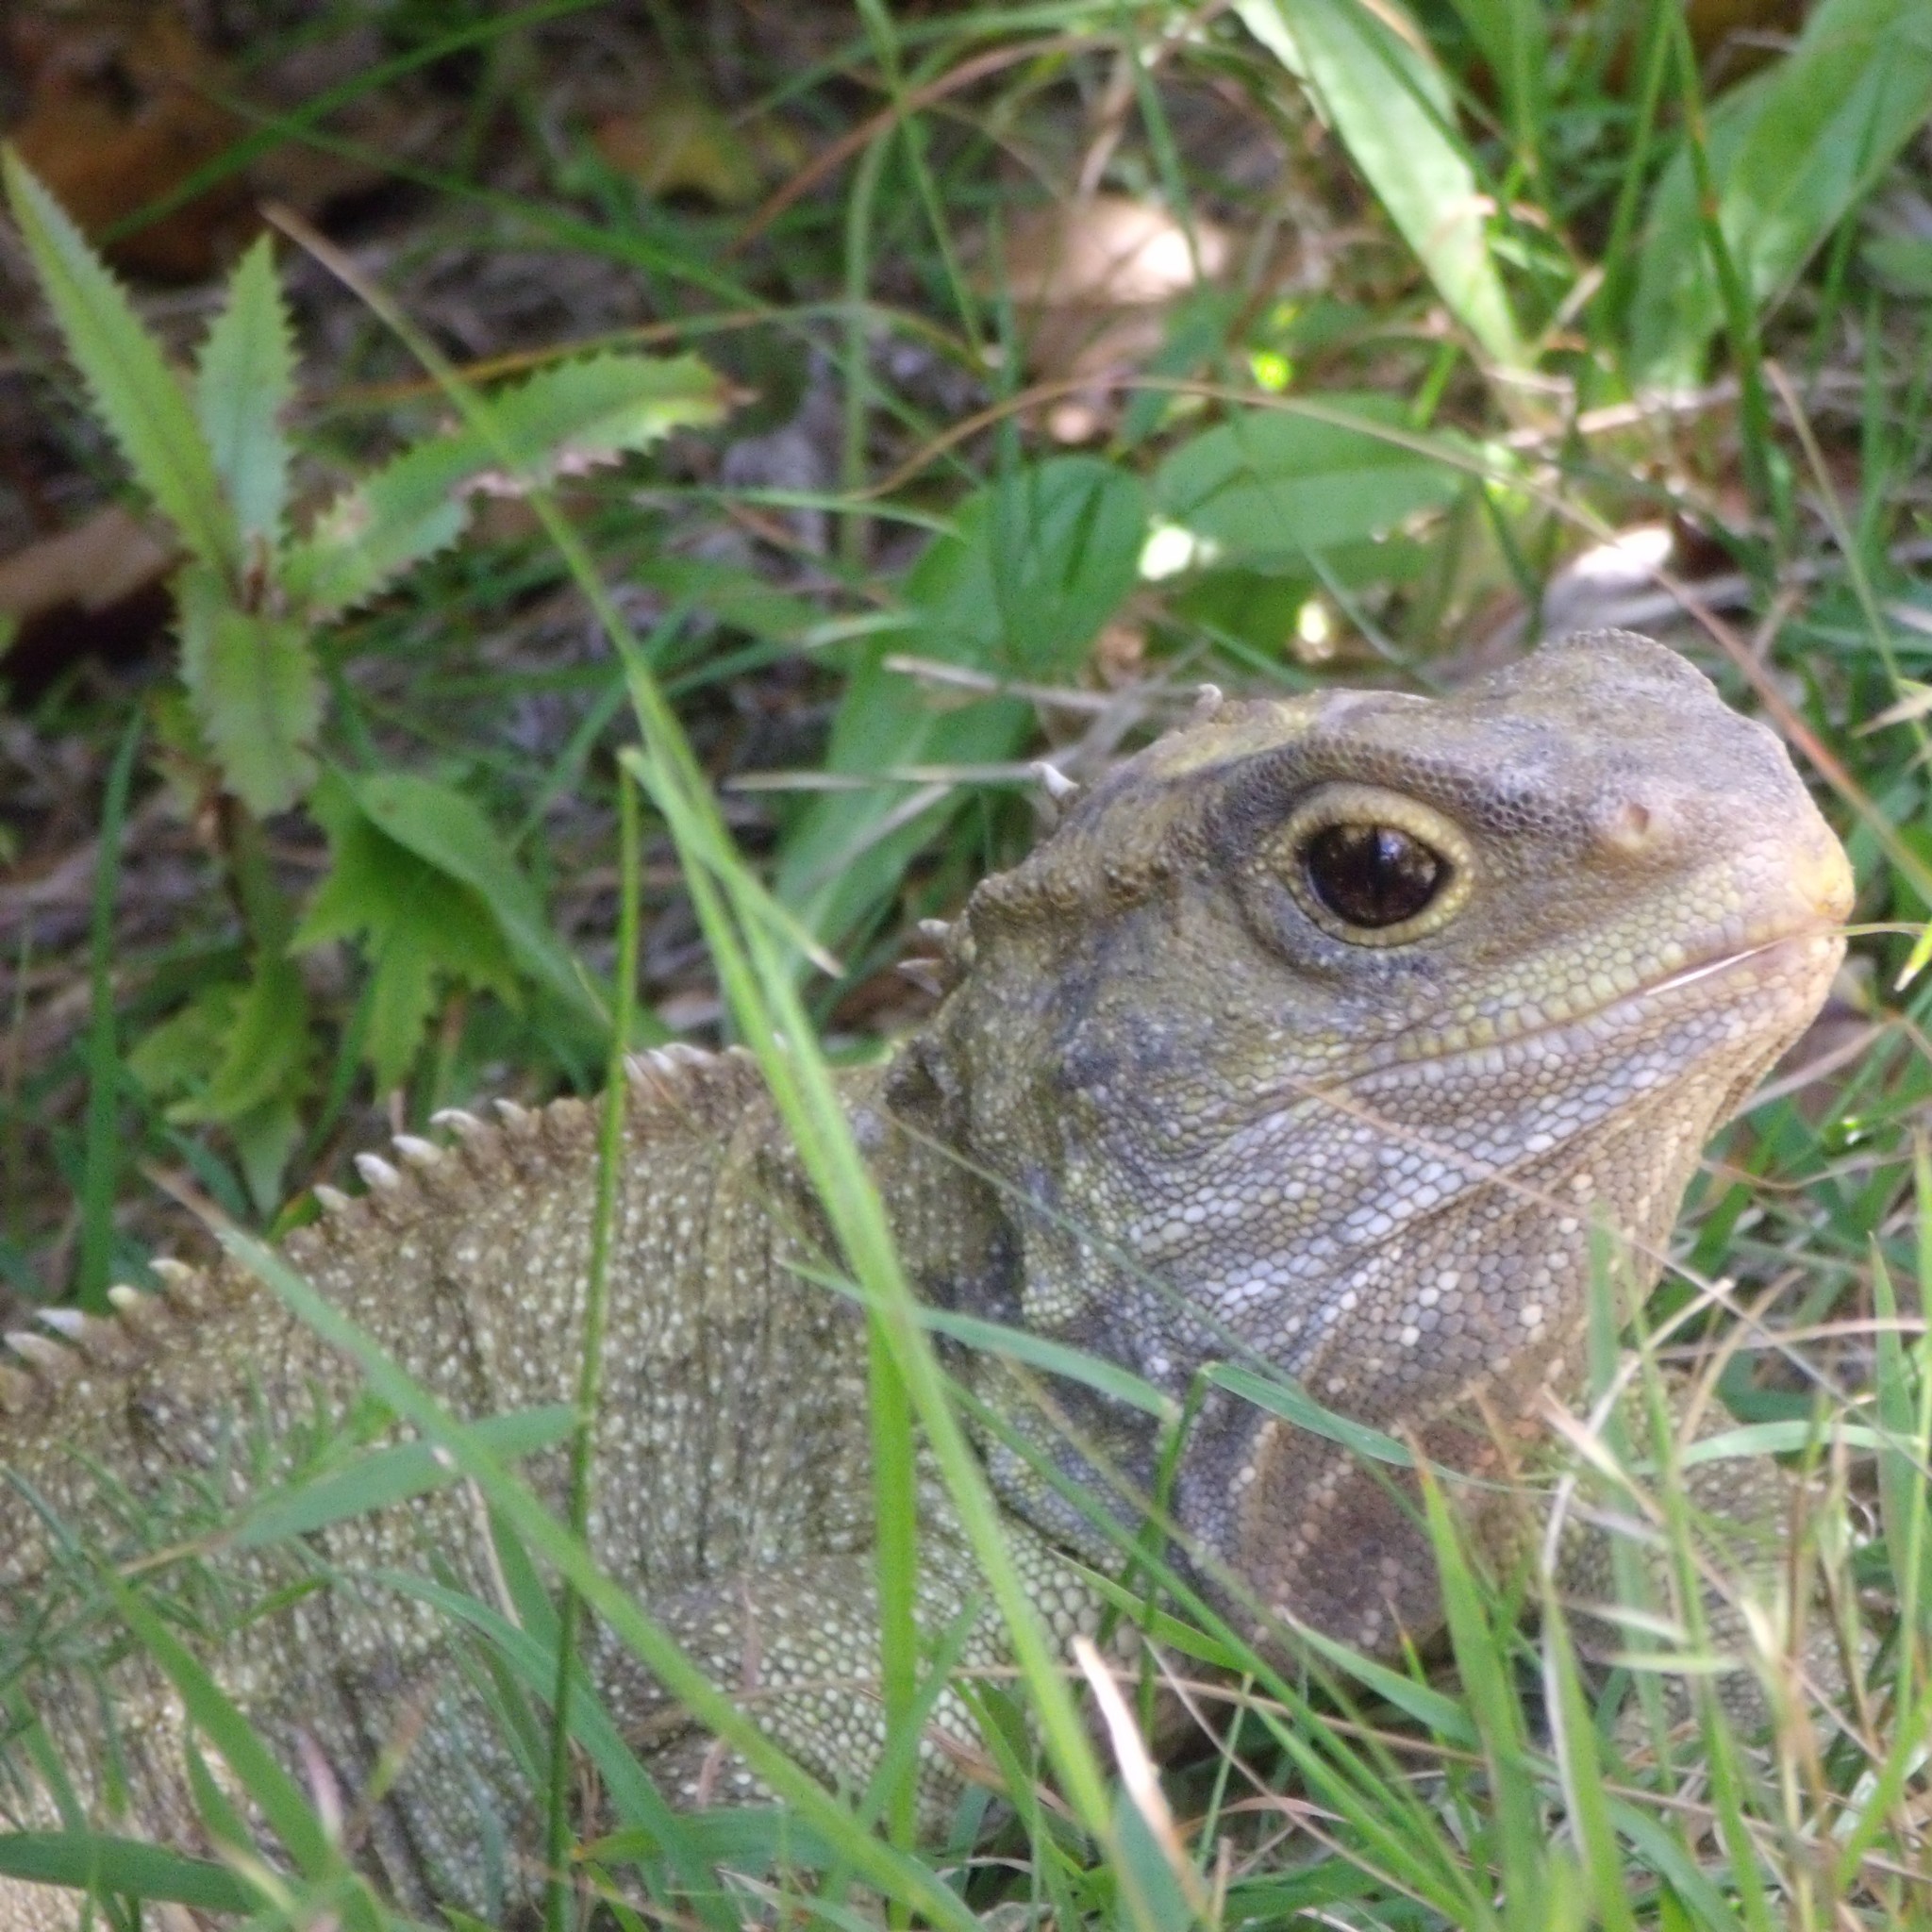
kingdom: Animalia
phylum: Chordata
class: Sphenodontia
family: Sphenodontidae
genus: Sphenodon
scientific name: Sphenodon punctatus
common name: Tuatara
